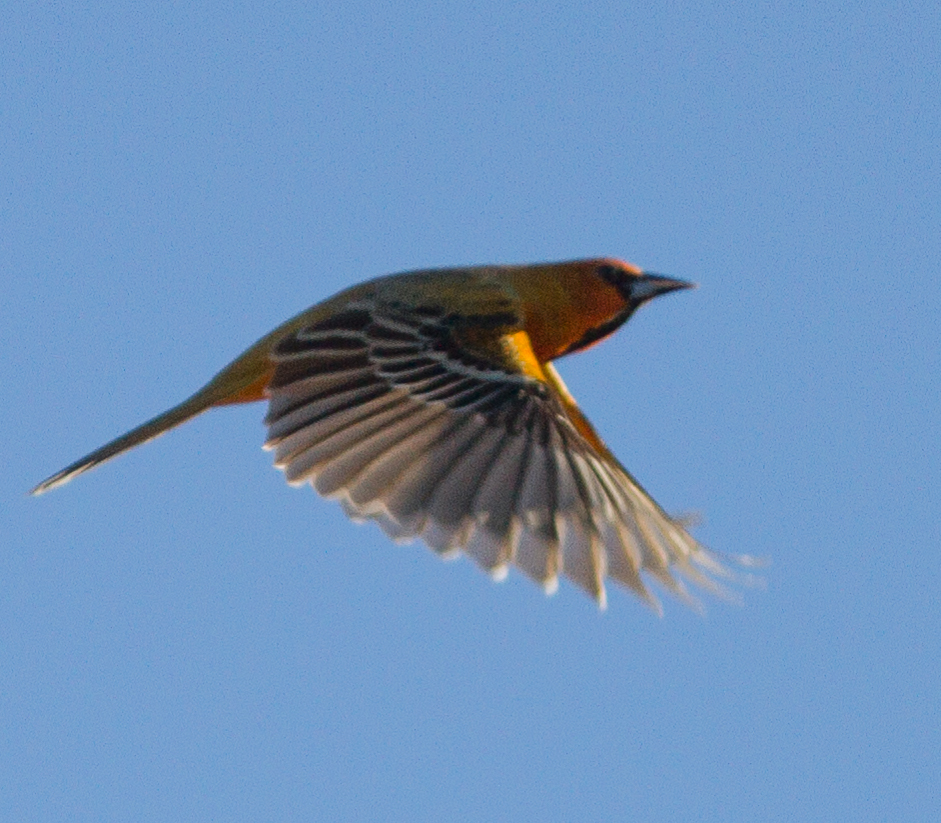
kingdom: Animalia
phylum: Chordata
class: Aves
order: Passeriformes
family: Icteridae
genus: Icterus
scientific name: Icterus pustulatus
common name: Streak-backed oriole
